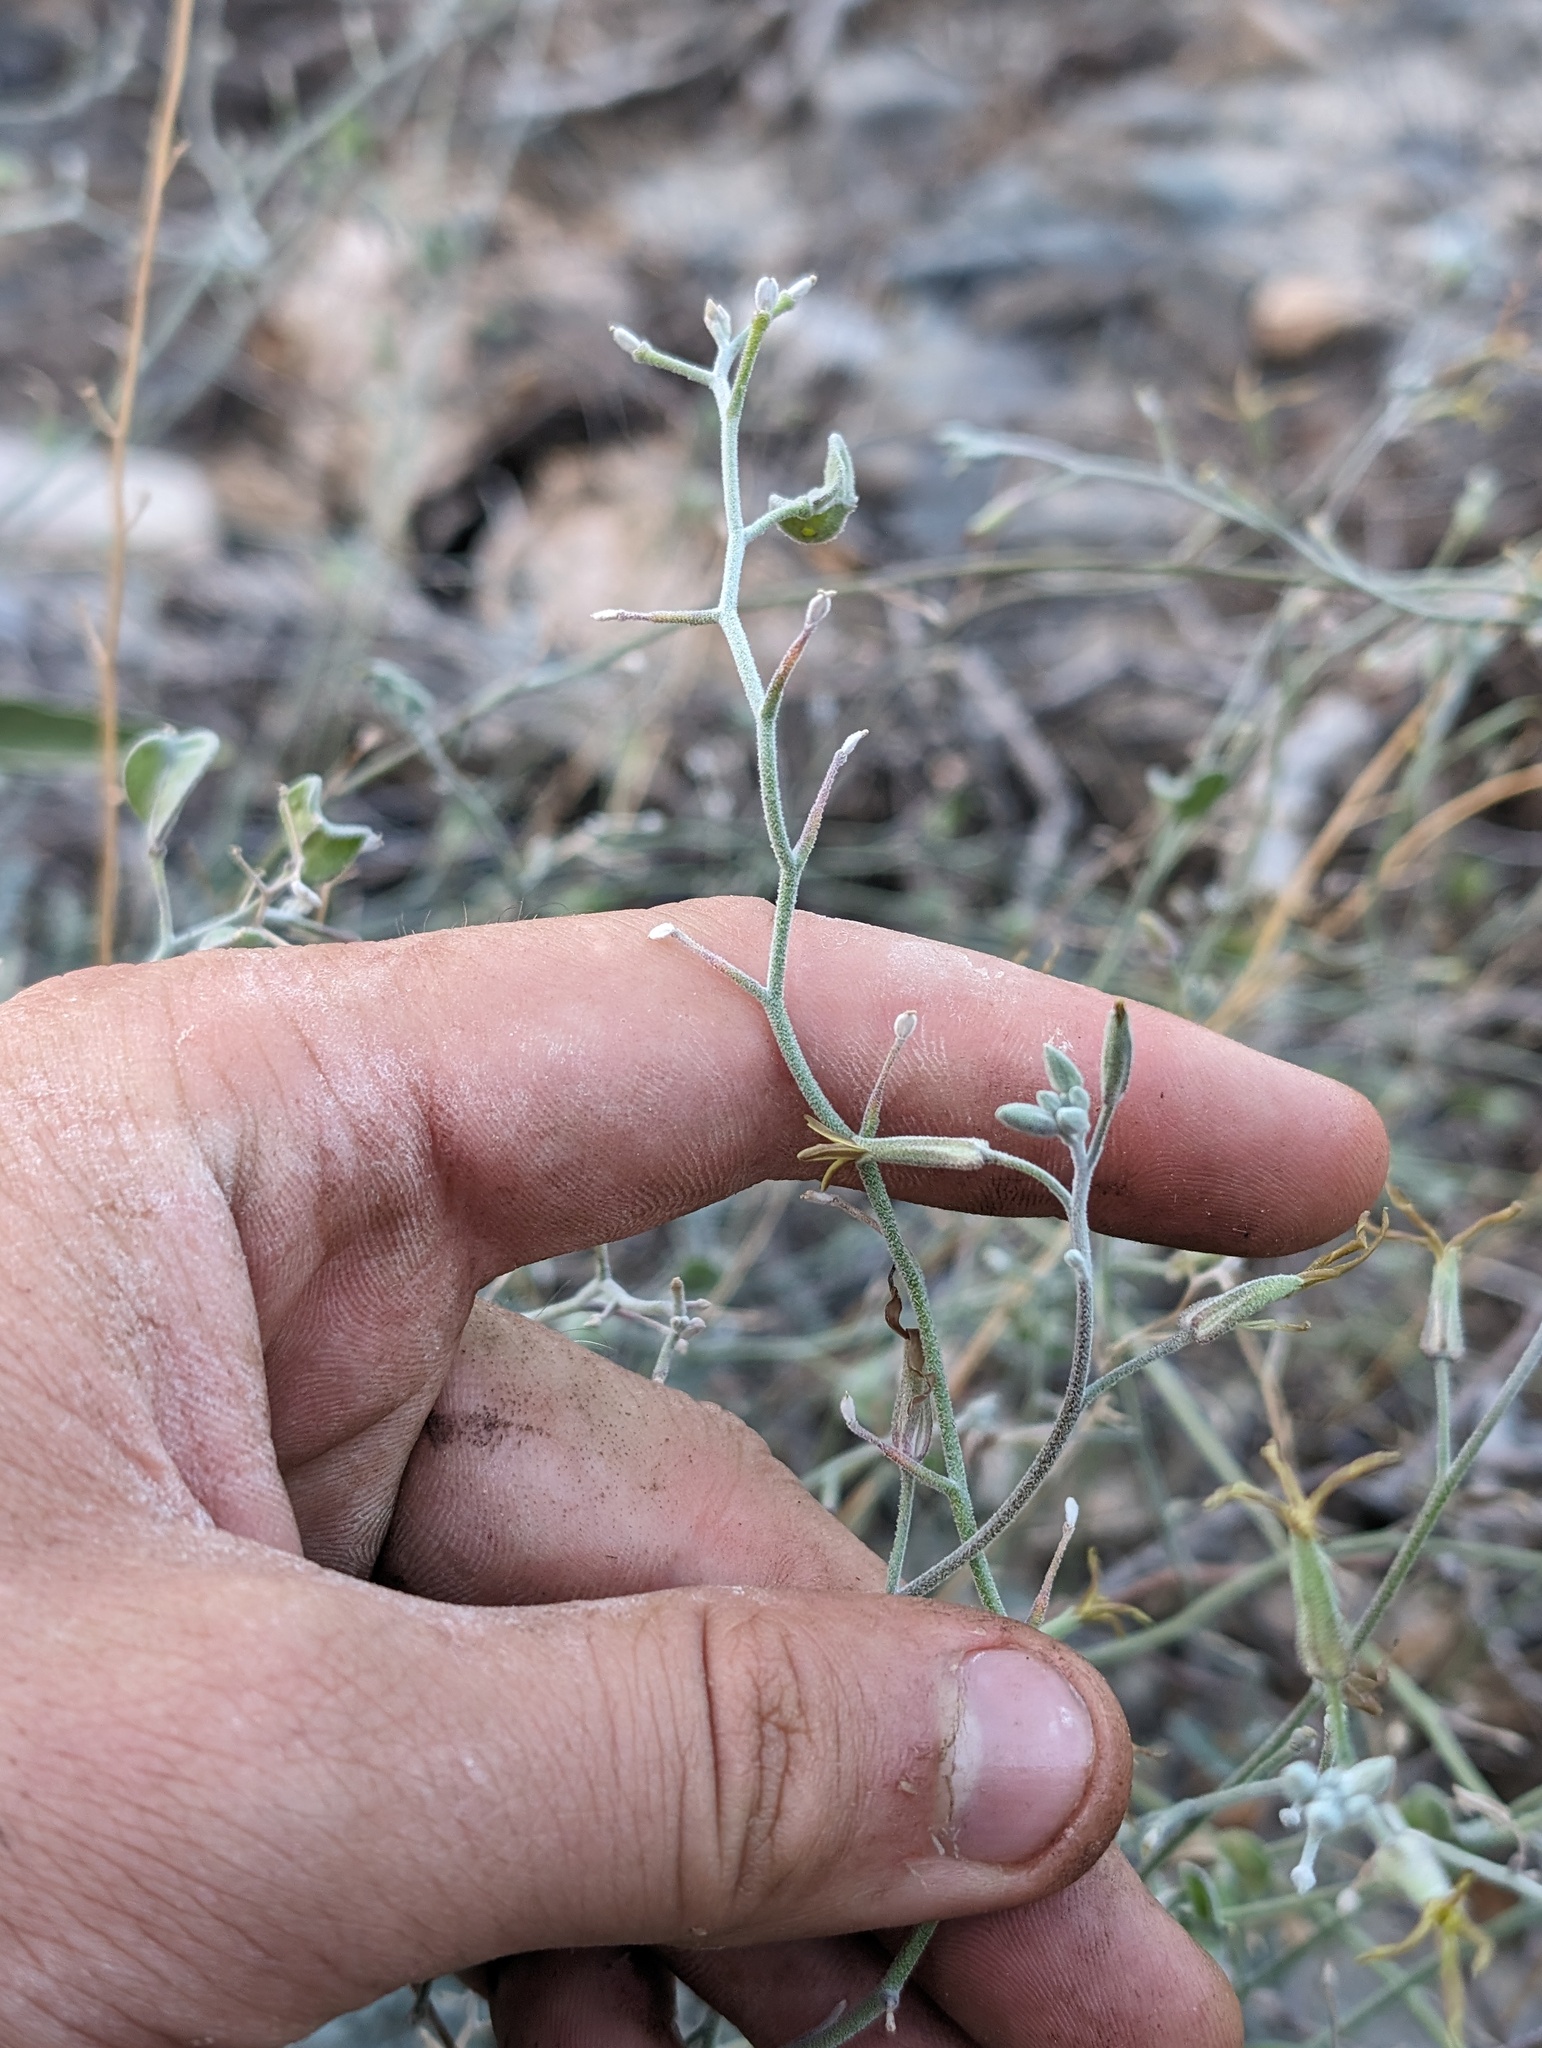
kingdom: Plantae
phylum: Tracheophyta
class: Magnoliopsida
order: Brassicales
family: Brassicaceae
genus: Lyrocarpa
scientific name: Lyrocarpa coulteri
